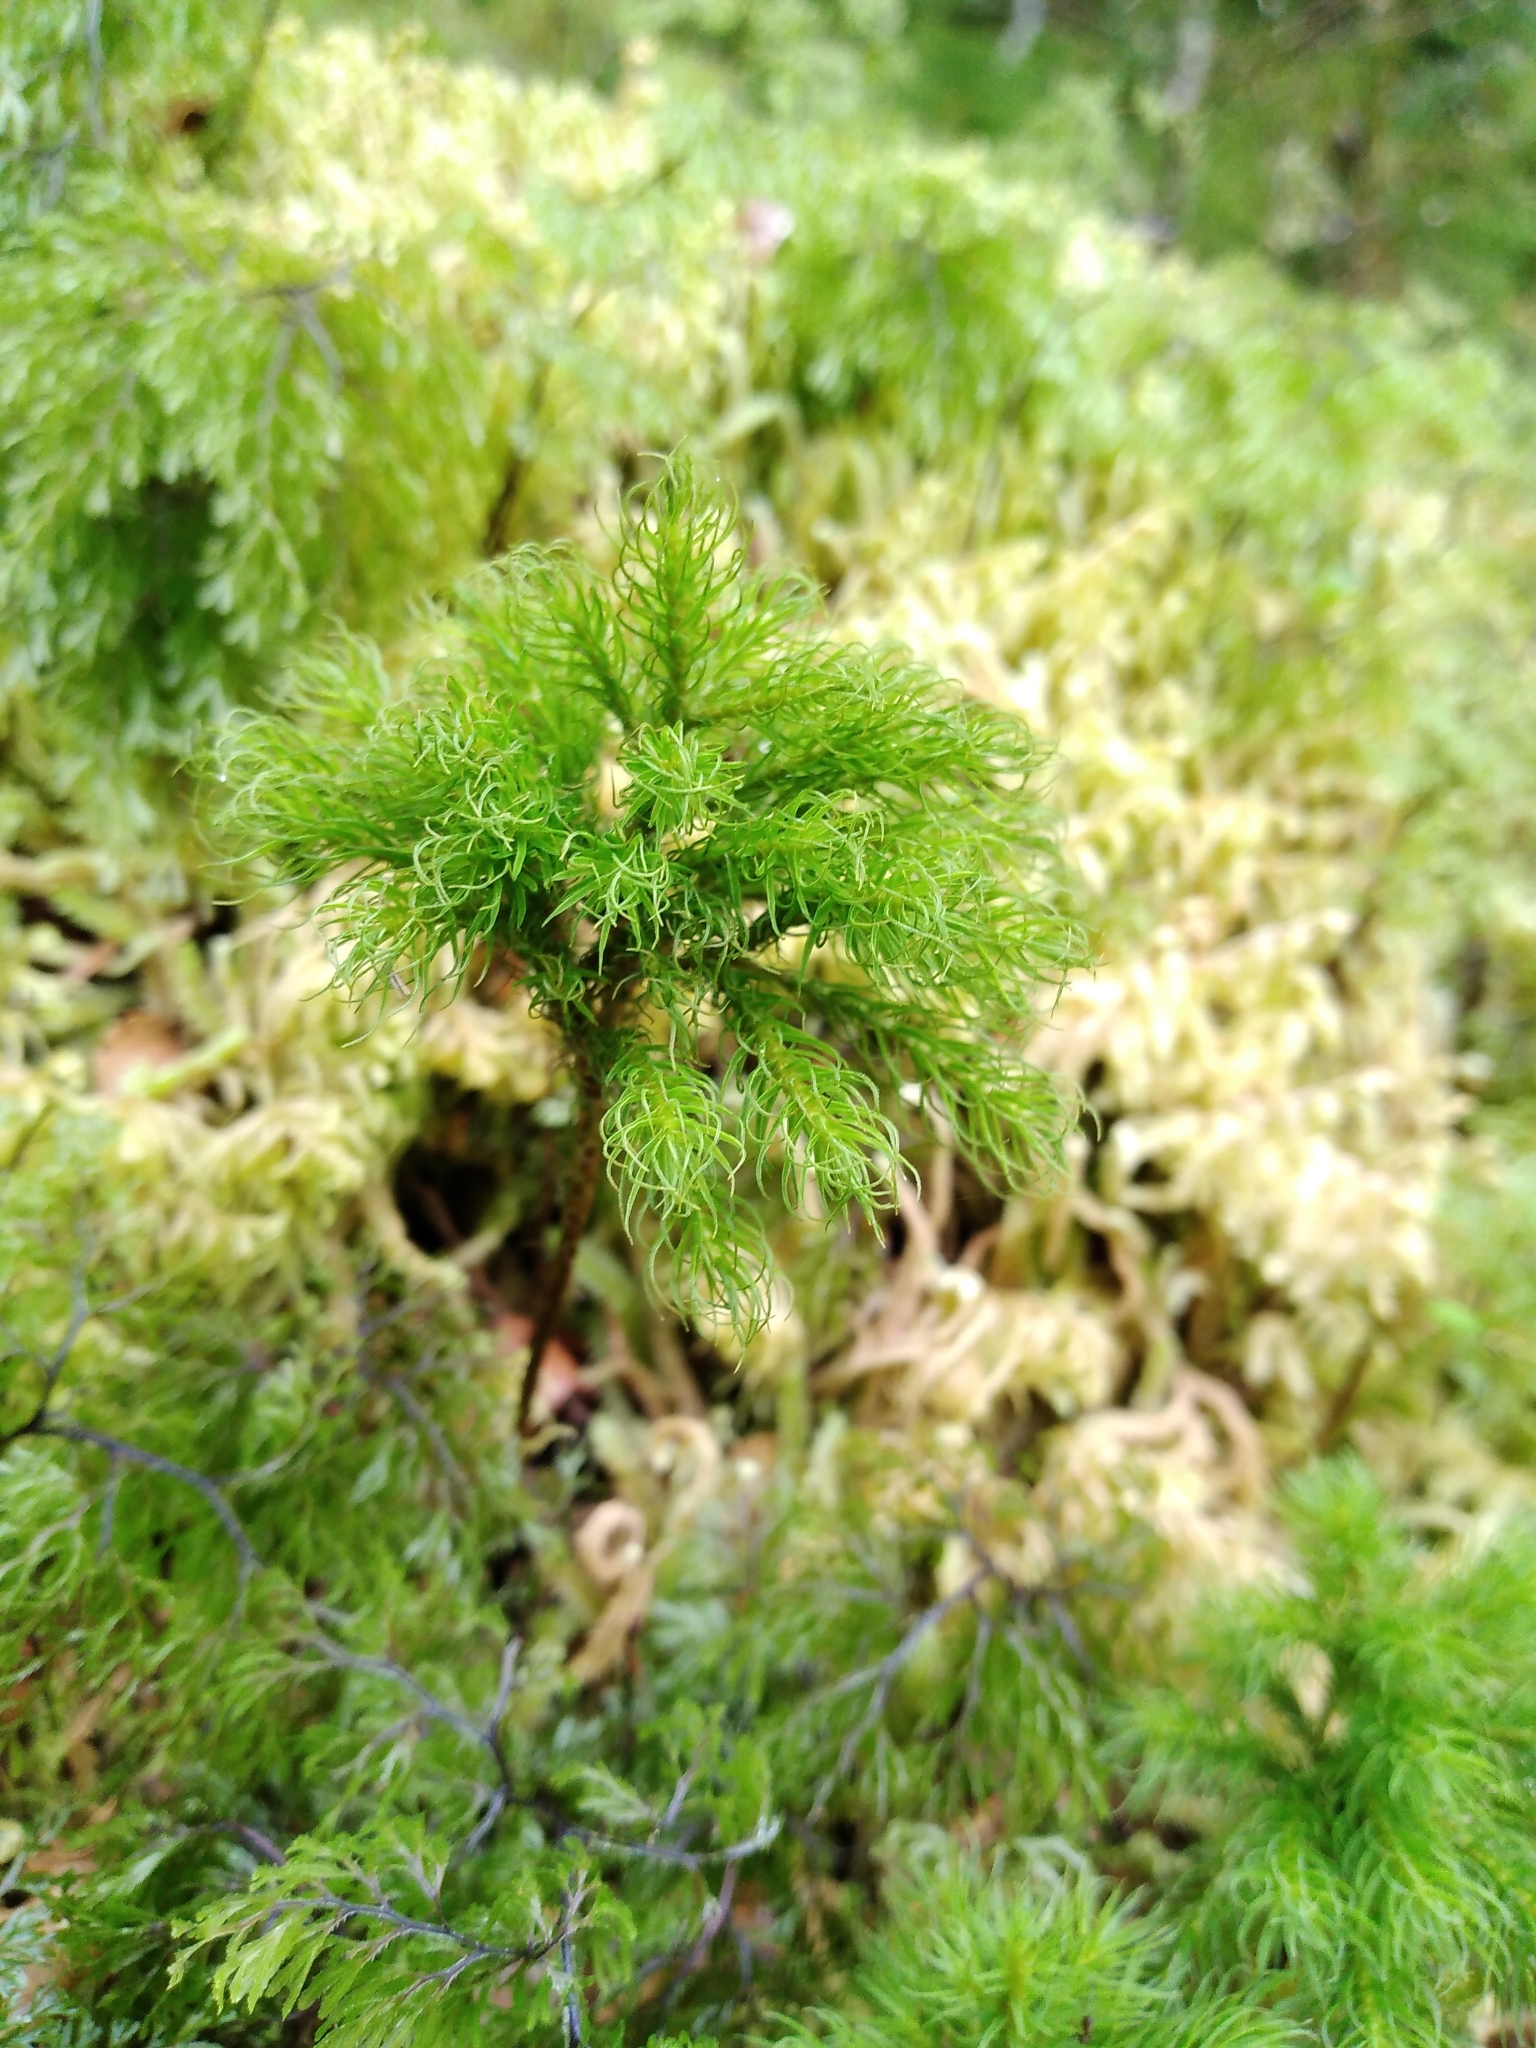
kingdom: Plantae
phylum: Bryophyta
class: Polytrichopsida
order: Polytrichales
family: Polytrichaceae
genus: Dendroligotrichum
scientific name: Dendroligotrichum tongariroense
